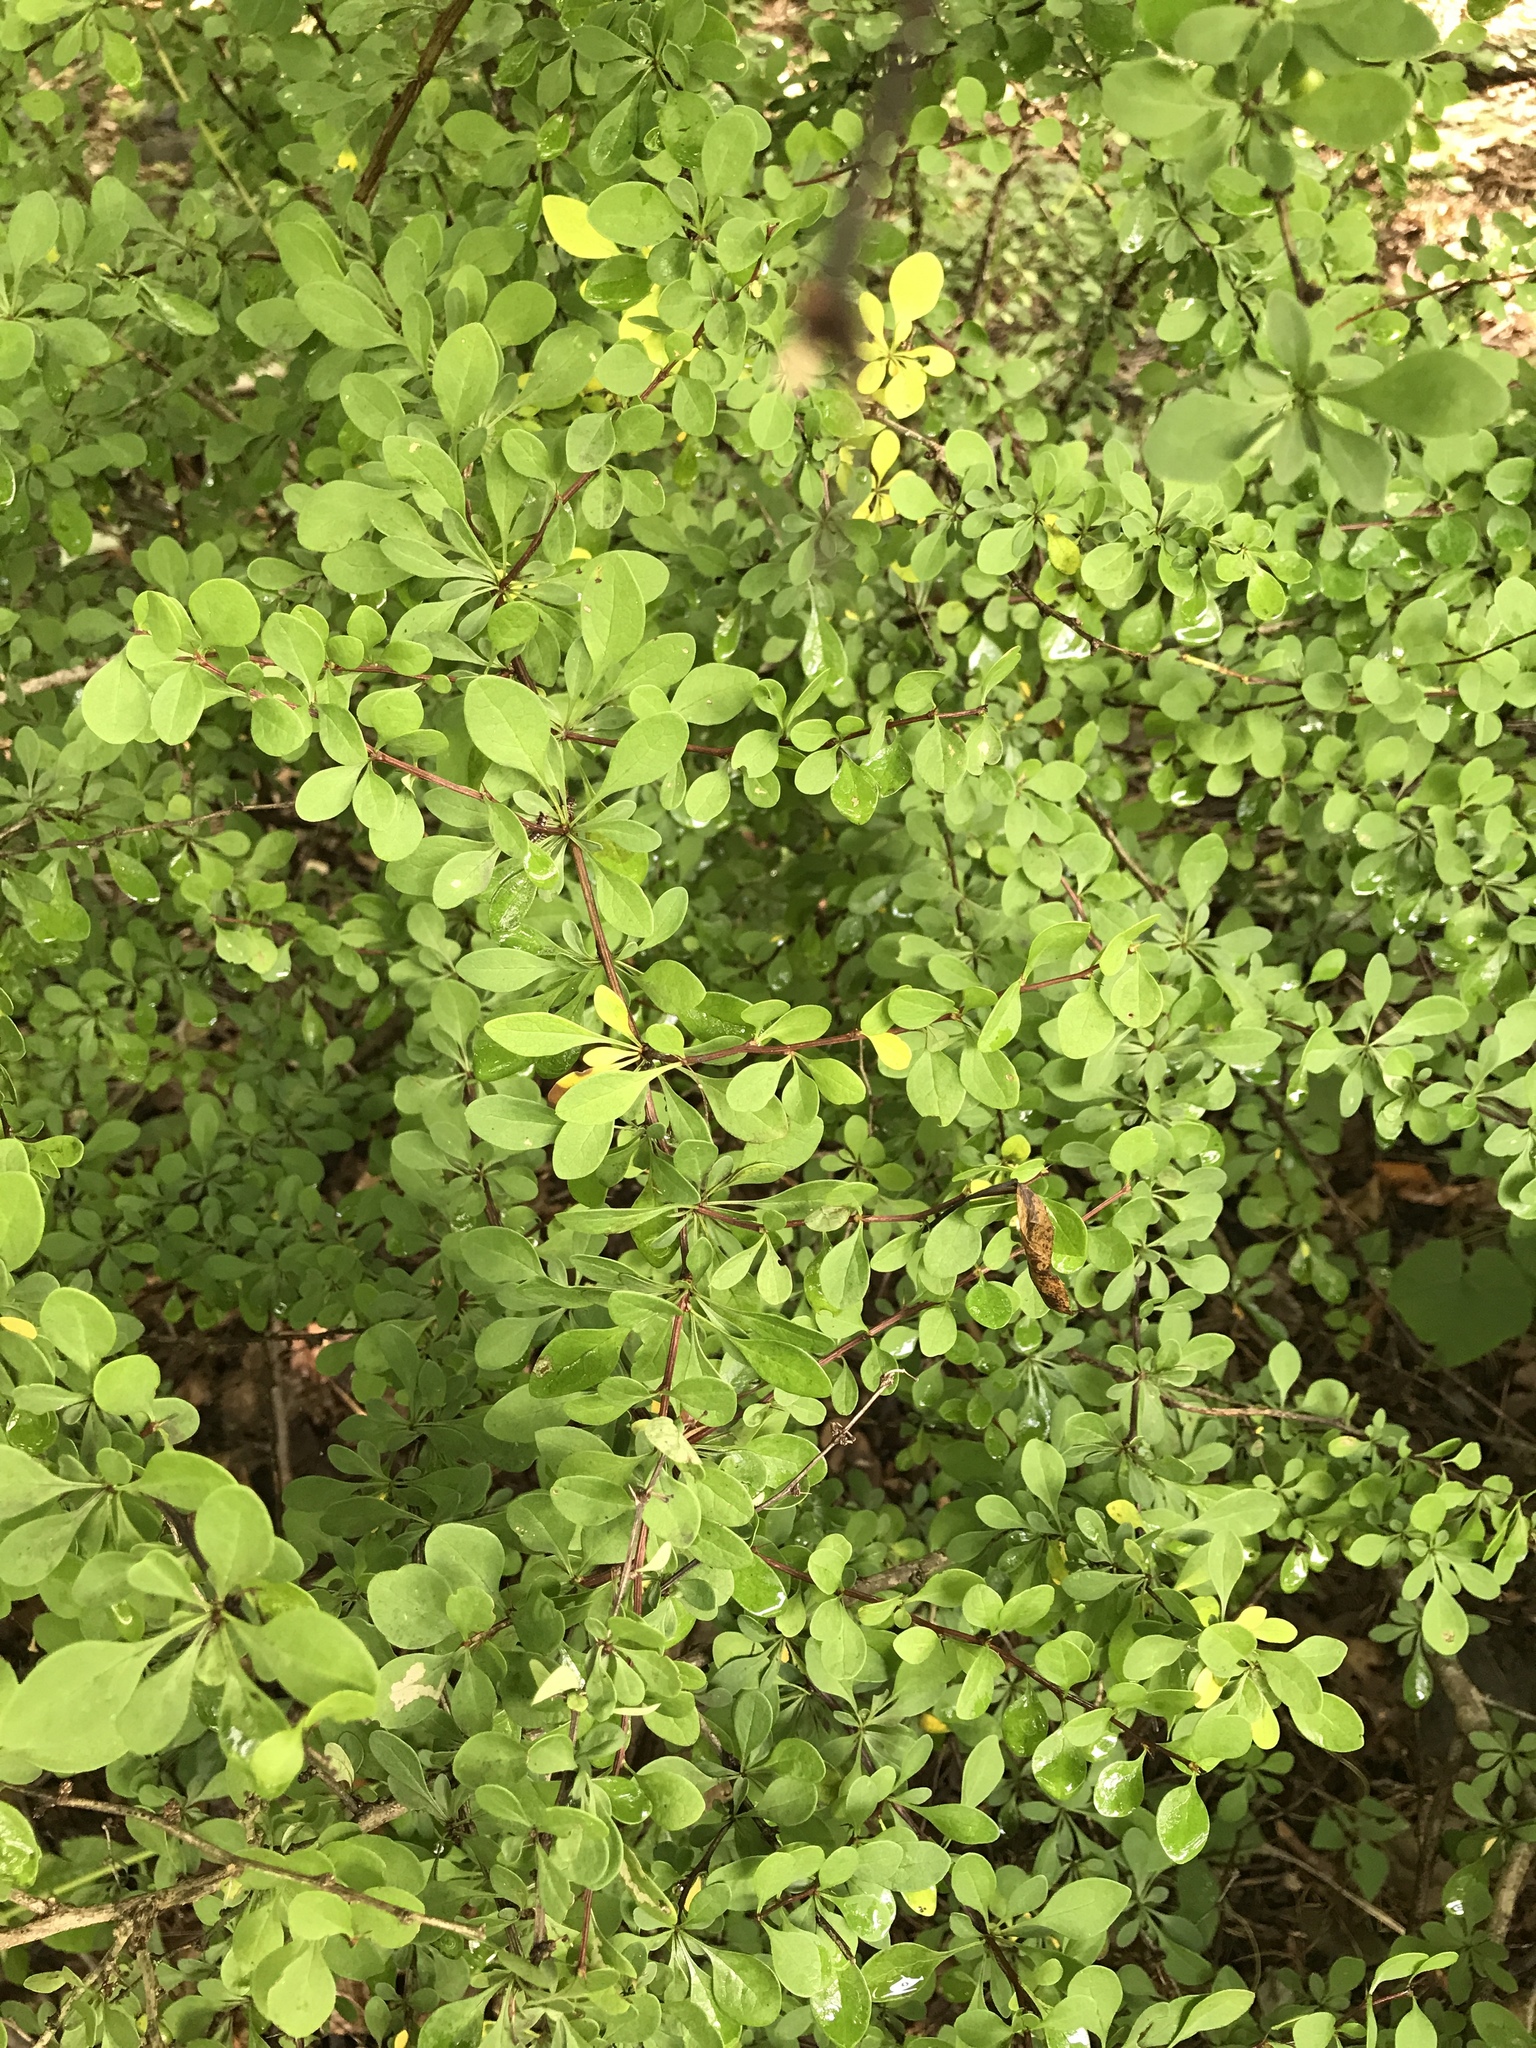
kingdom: Plantae
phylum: Tracheophyta
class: Magnoliopsida
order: Ranunculales
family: Berberidaceae
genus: Berberis
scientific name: Berberis thunbergii
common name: Japanese barberry
